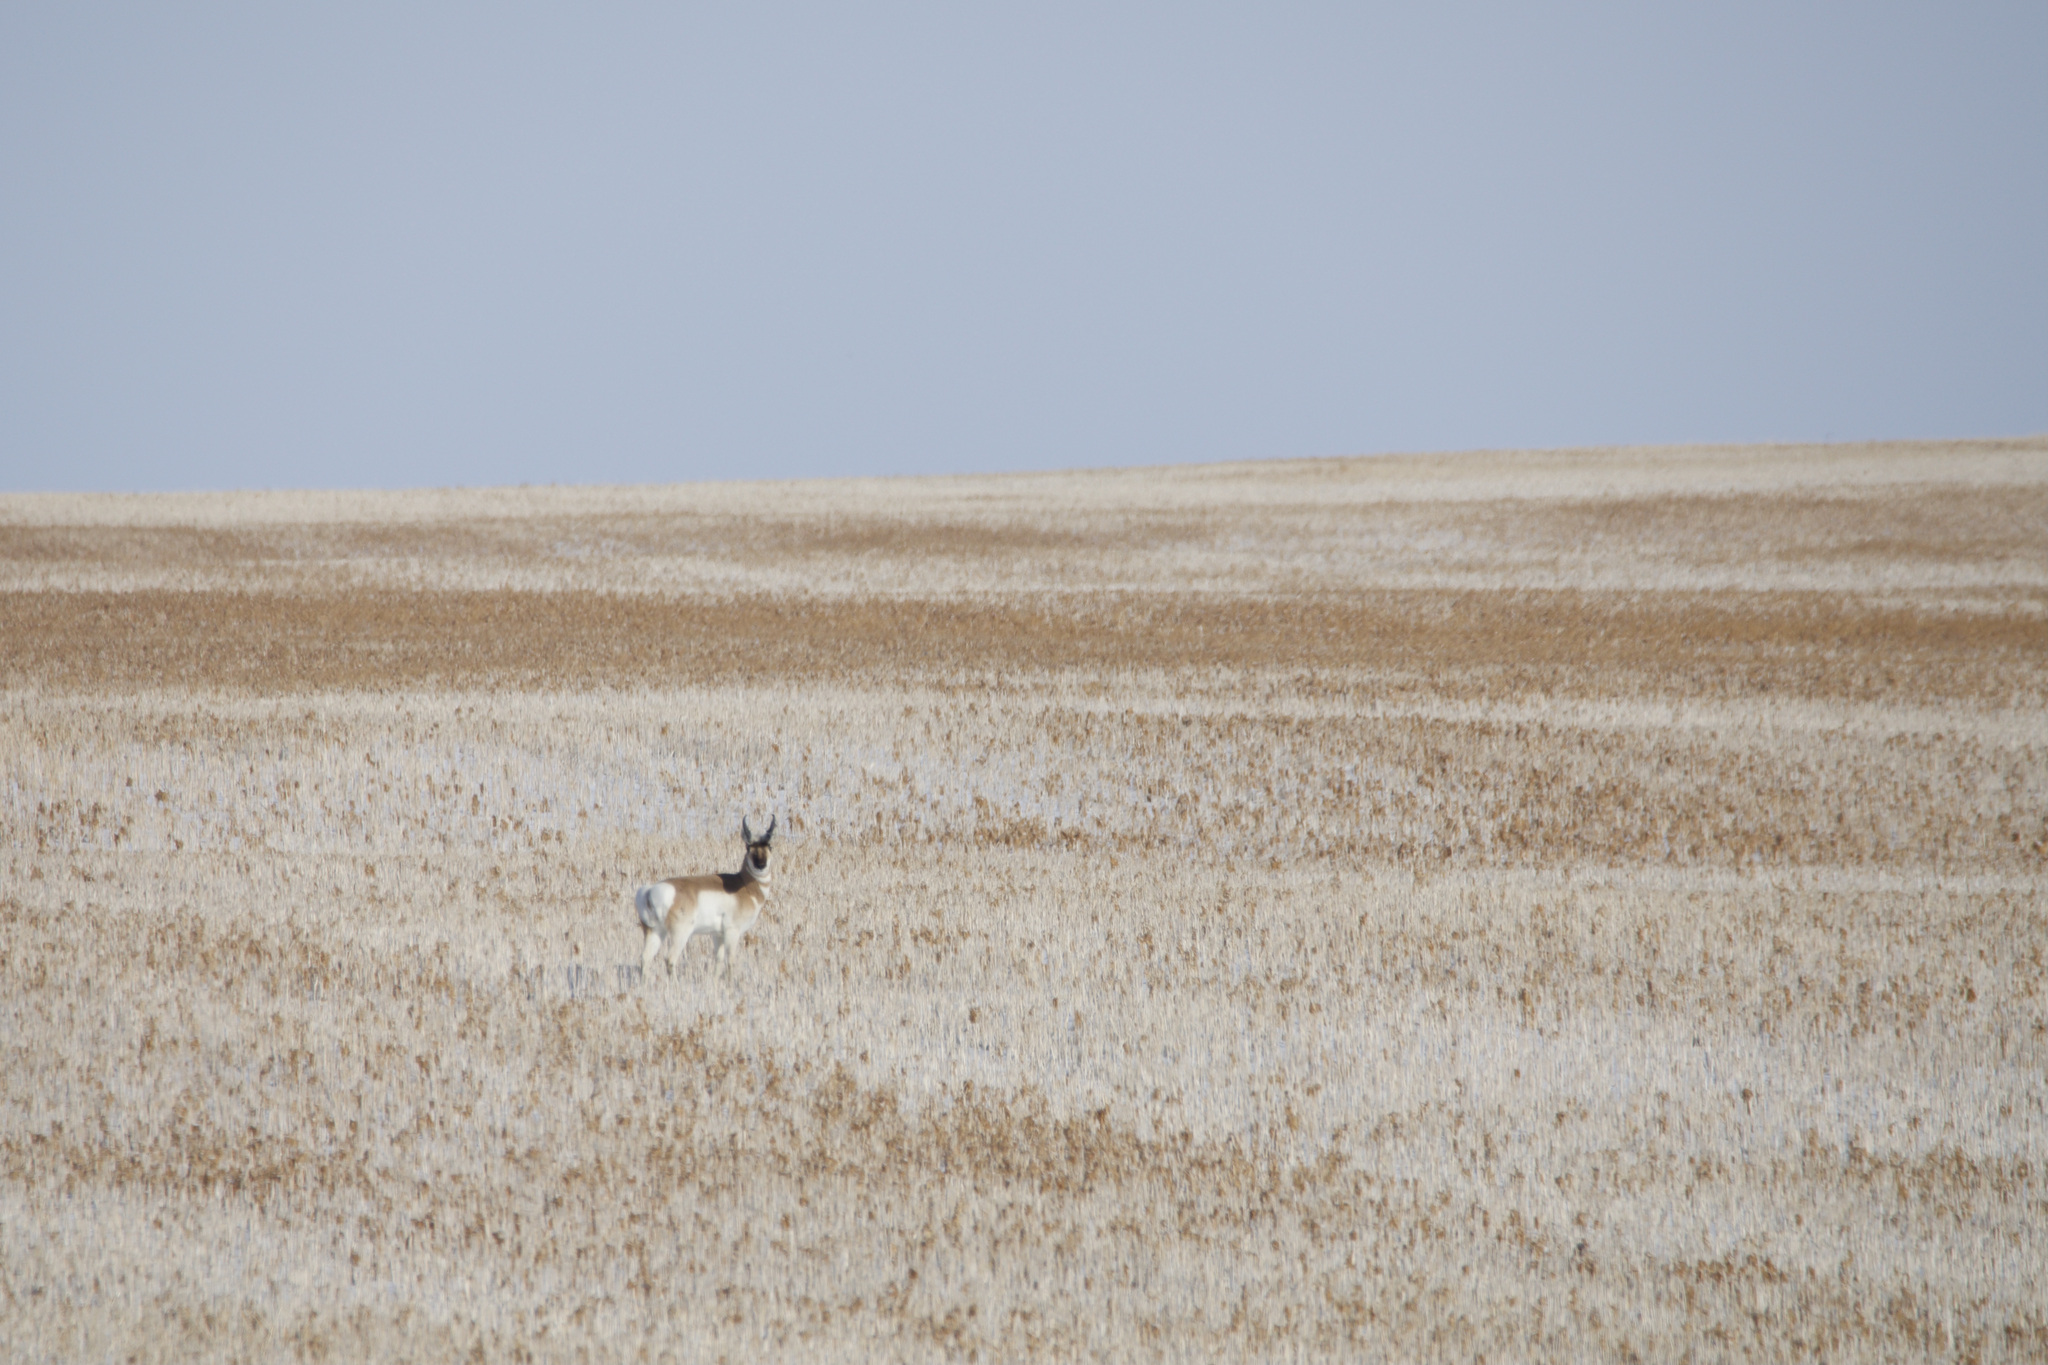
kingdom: Animalia
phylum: Chordata
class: Mammalia
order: Artiodactyla
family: Antilocapridae
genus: Antilocapra
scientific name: Antilocapra americana
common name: Pronghorn
